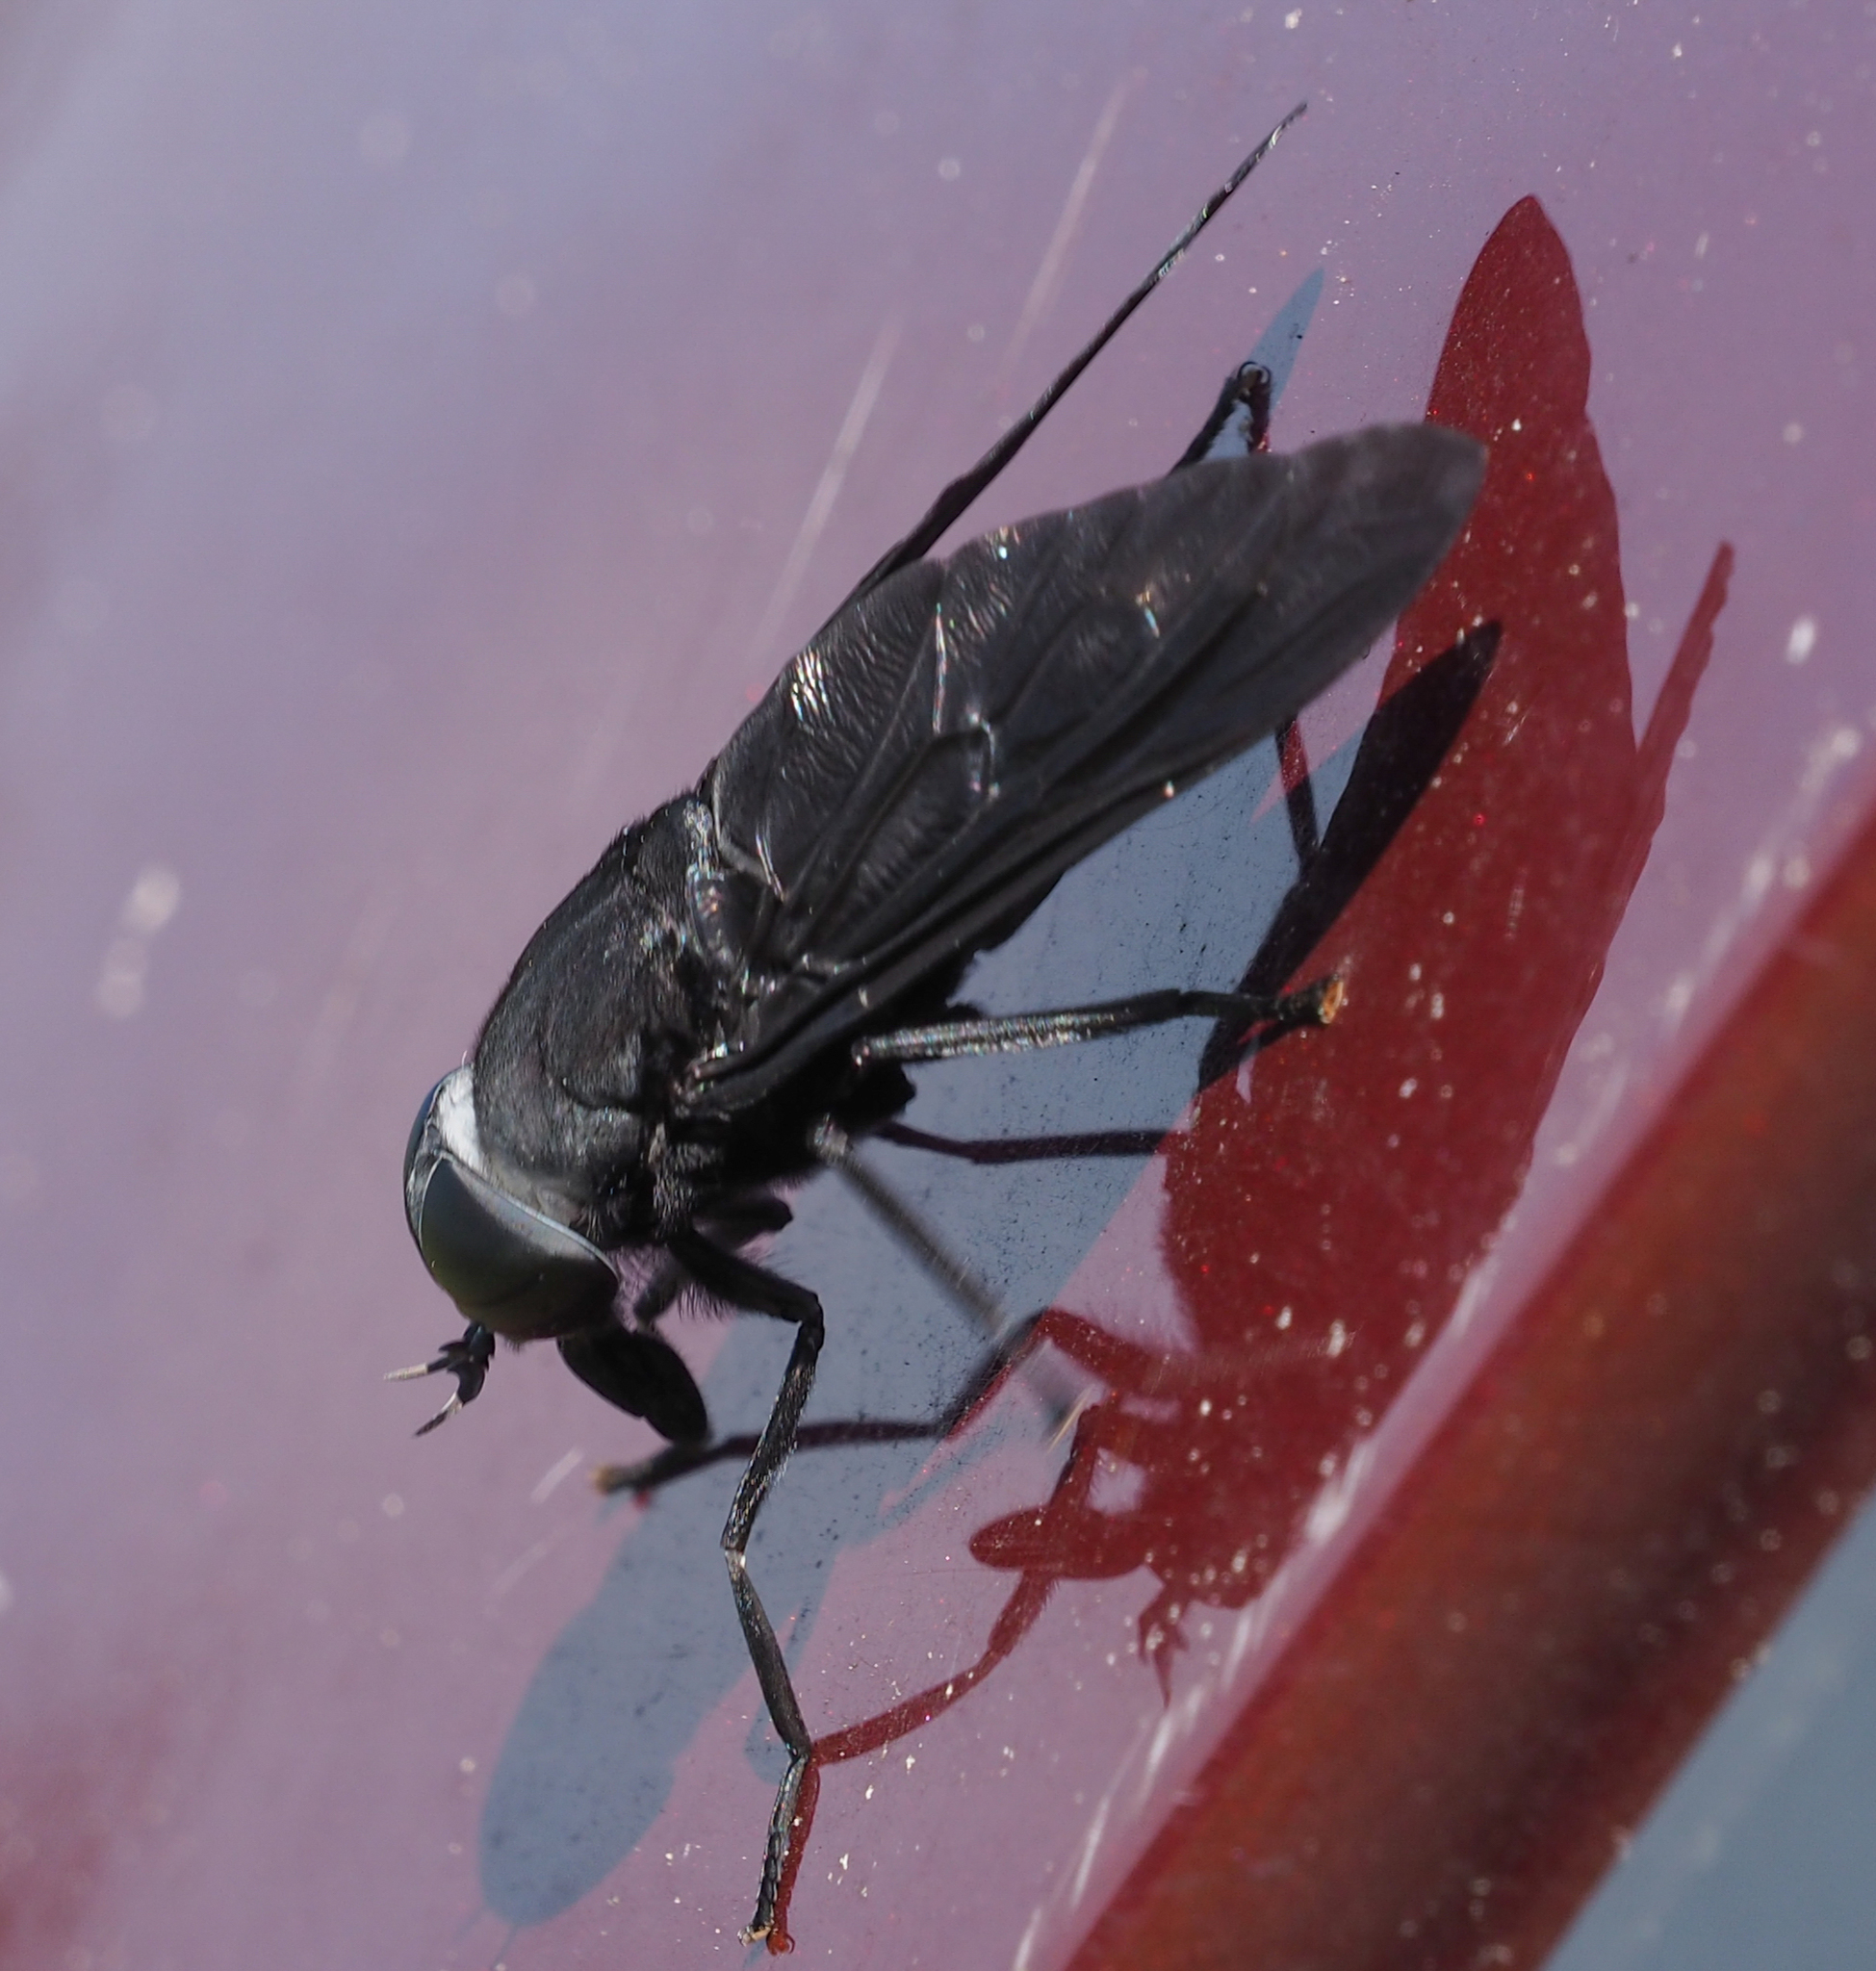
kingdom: Animalia
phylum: Arthropoda
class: Insecta
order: Diptera
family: Tabanidae
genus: Tabanus
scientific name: Tabanus atratus
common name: Black horse fly
